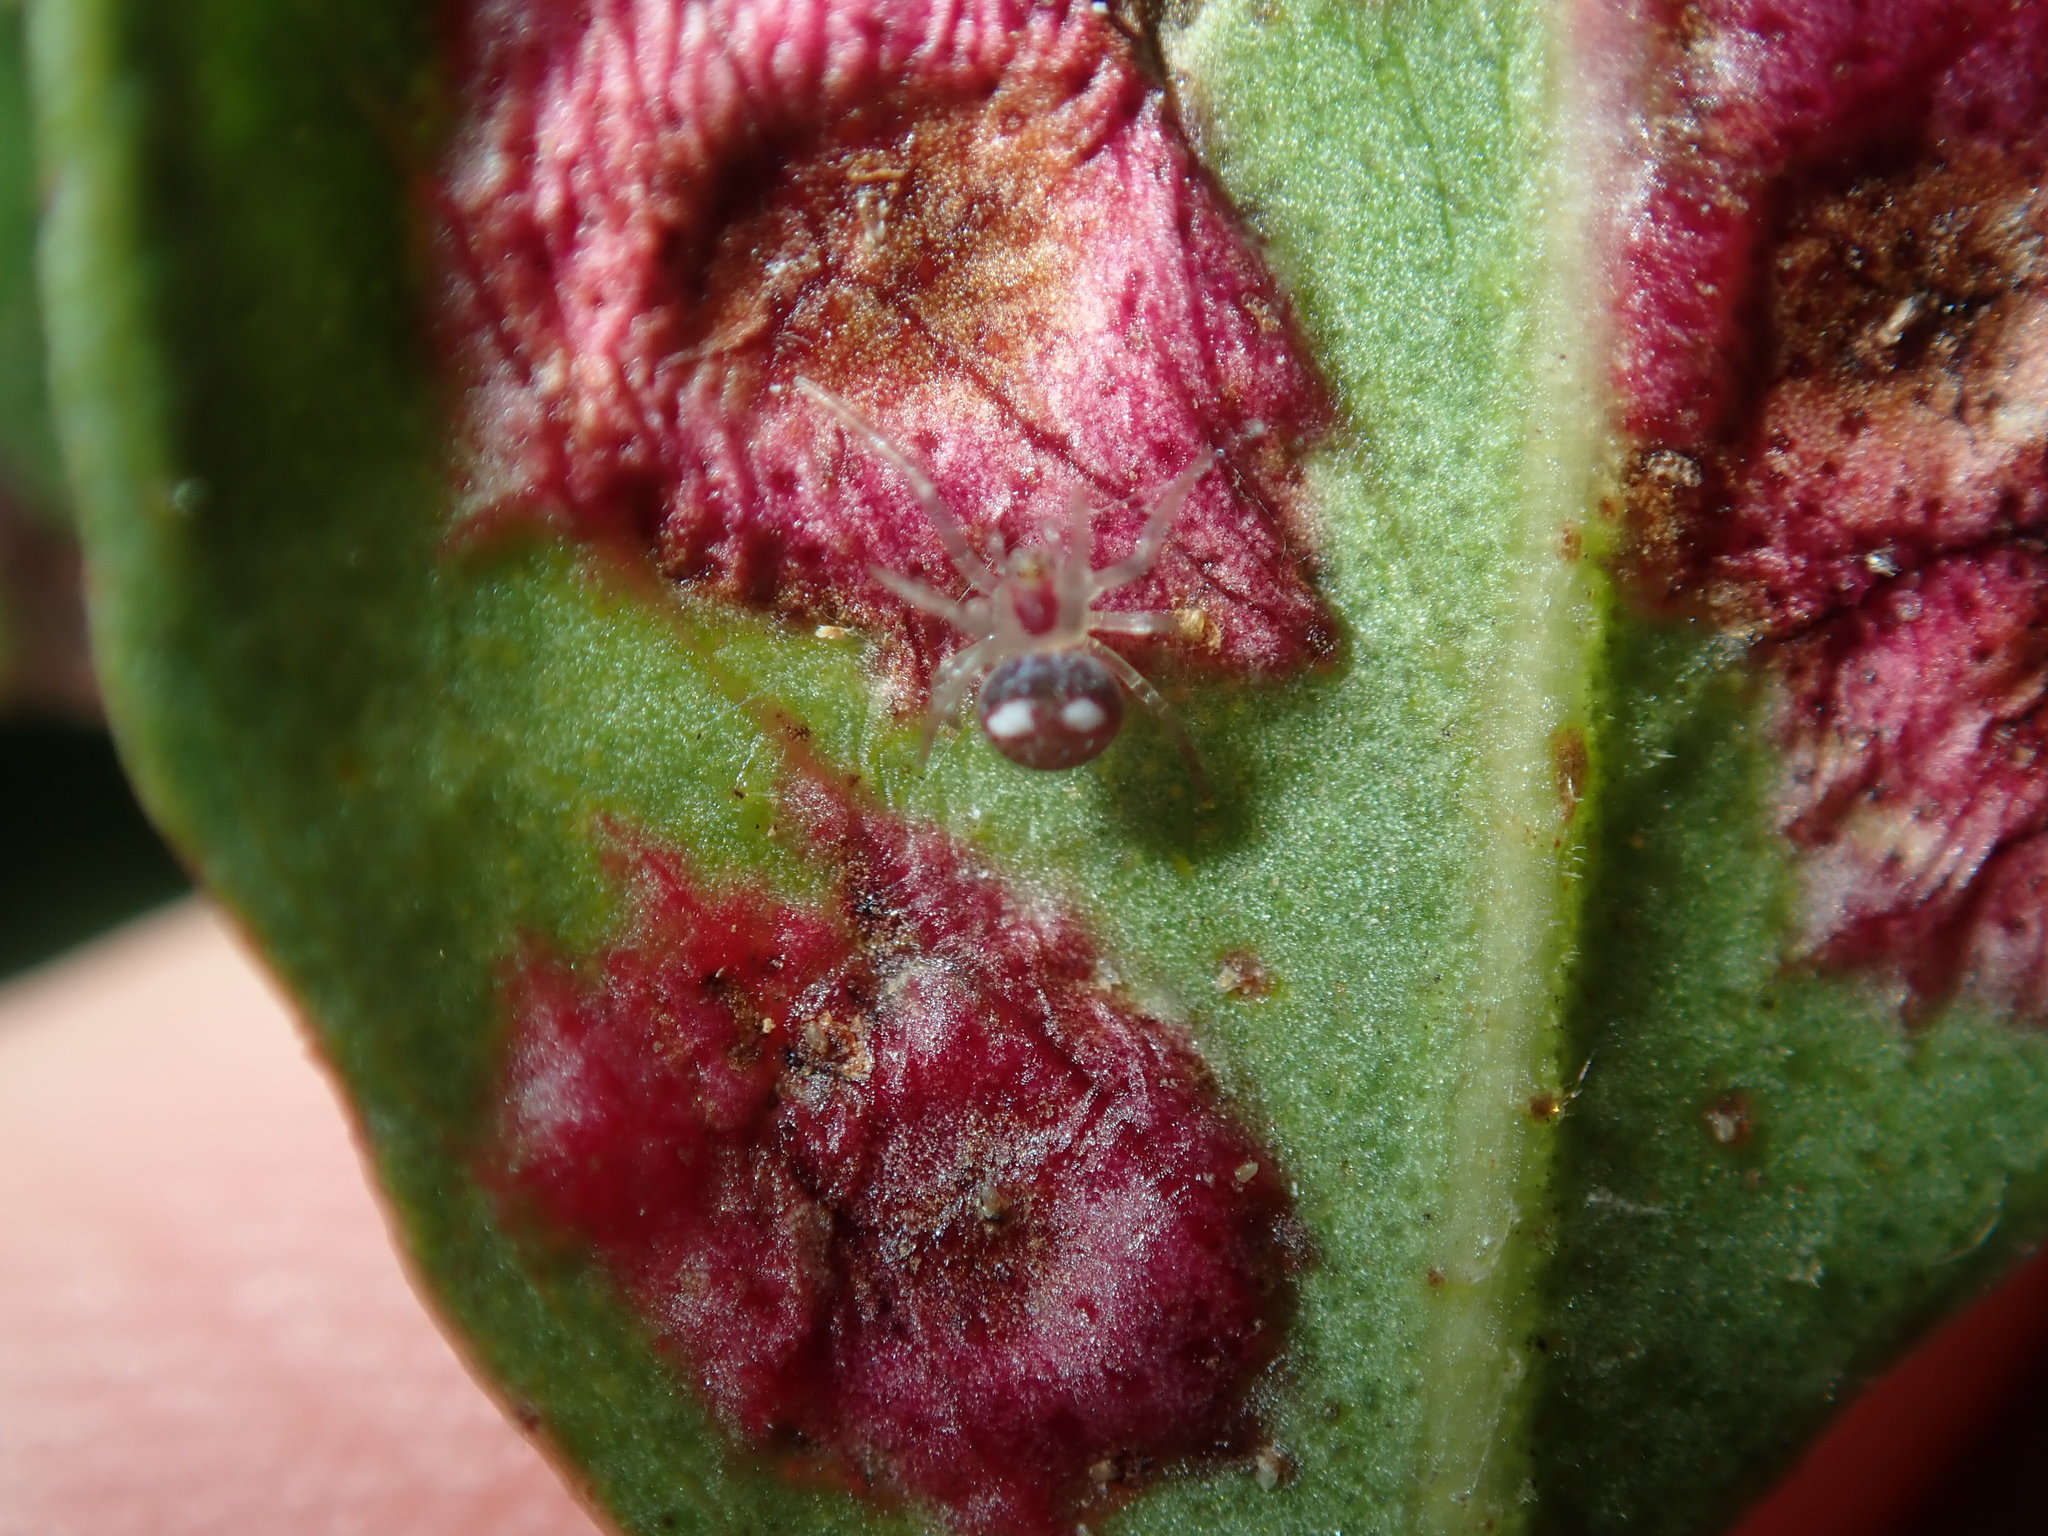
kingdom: Animalia
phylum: Arthropoda
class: Arachnida
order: Araneae
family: Araneidae
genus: Araneus
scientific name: Araneus circulissparsus
